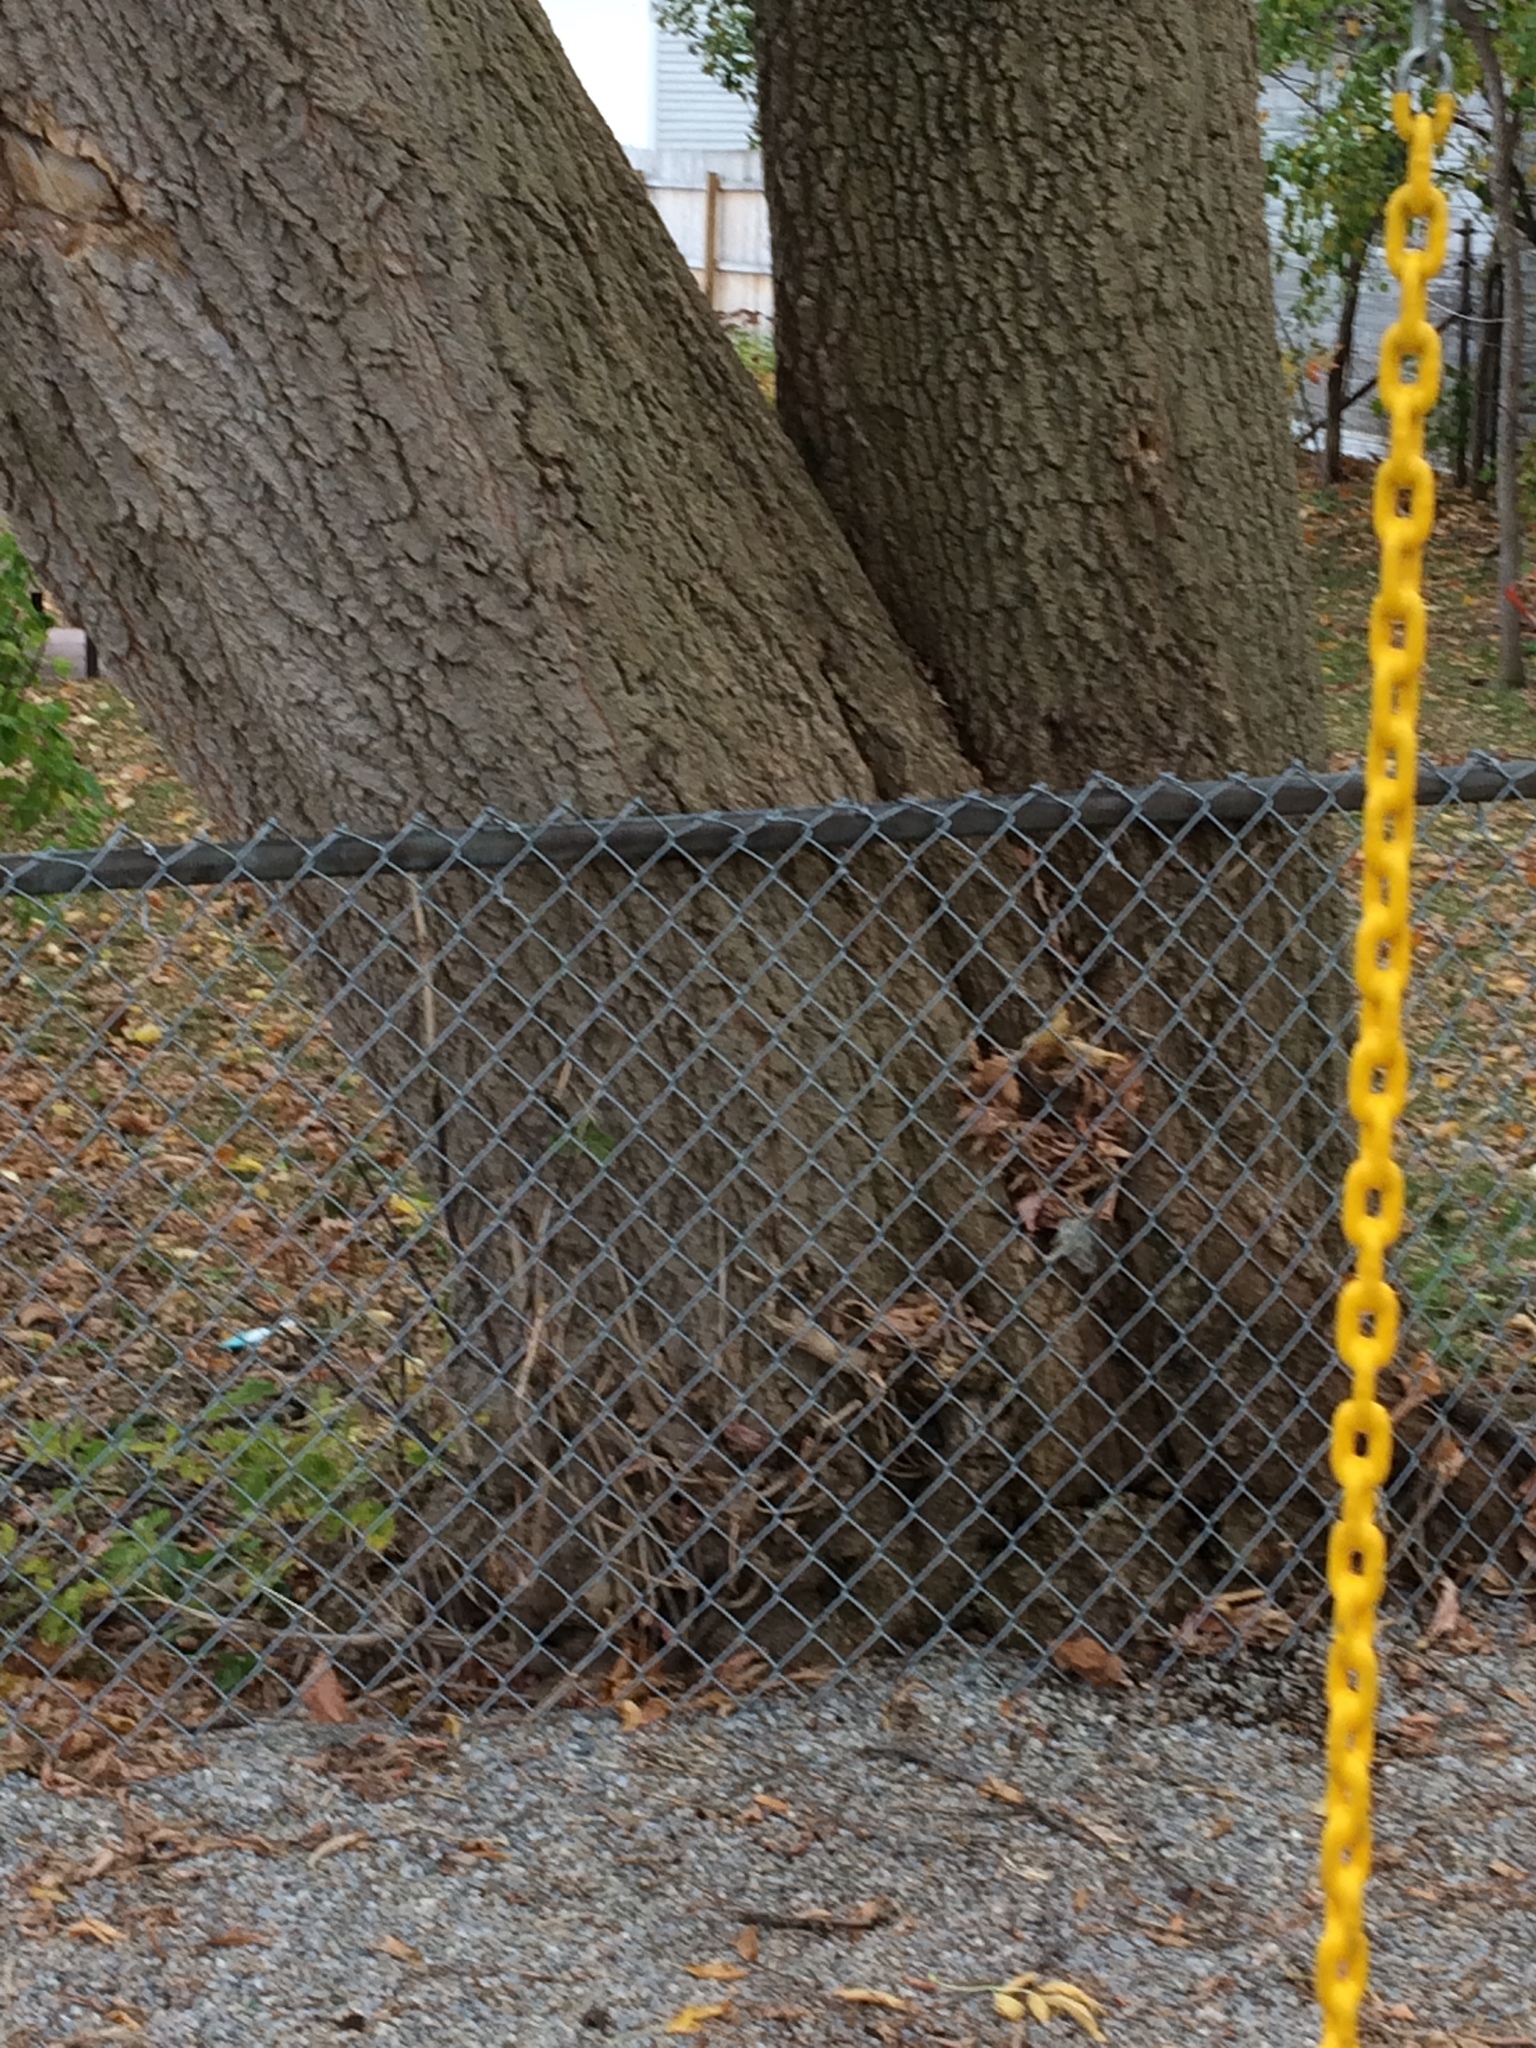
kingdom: Plantae
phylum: Tracheophyta
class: Magnoliopsida
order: Sapindales
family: Sapindaceae
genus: Acer
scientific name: Acer negundo
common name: Ashleaf maple
